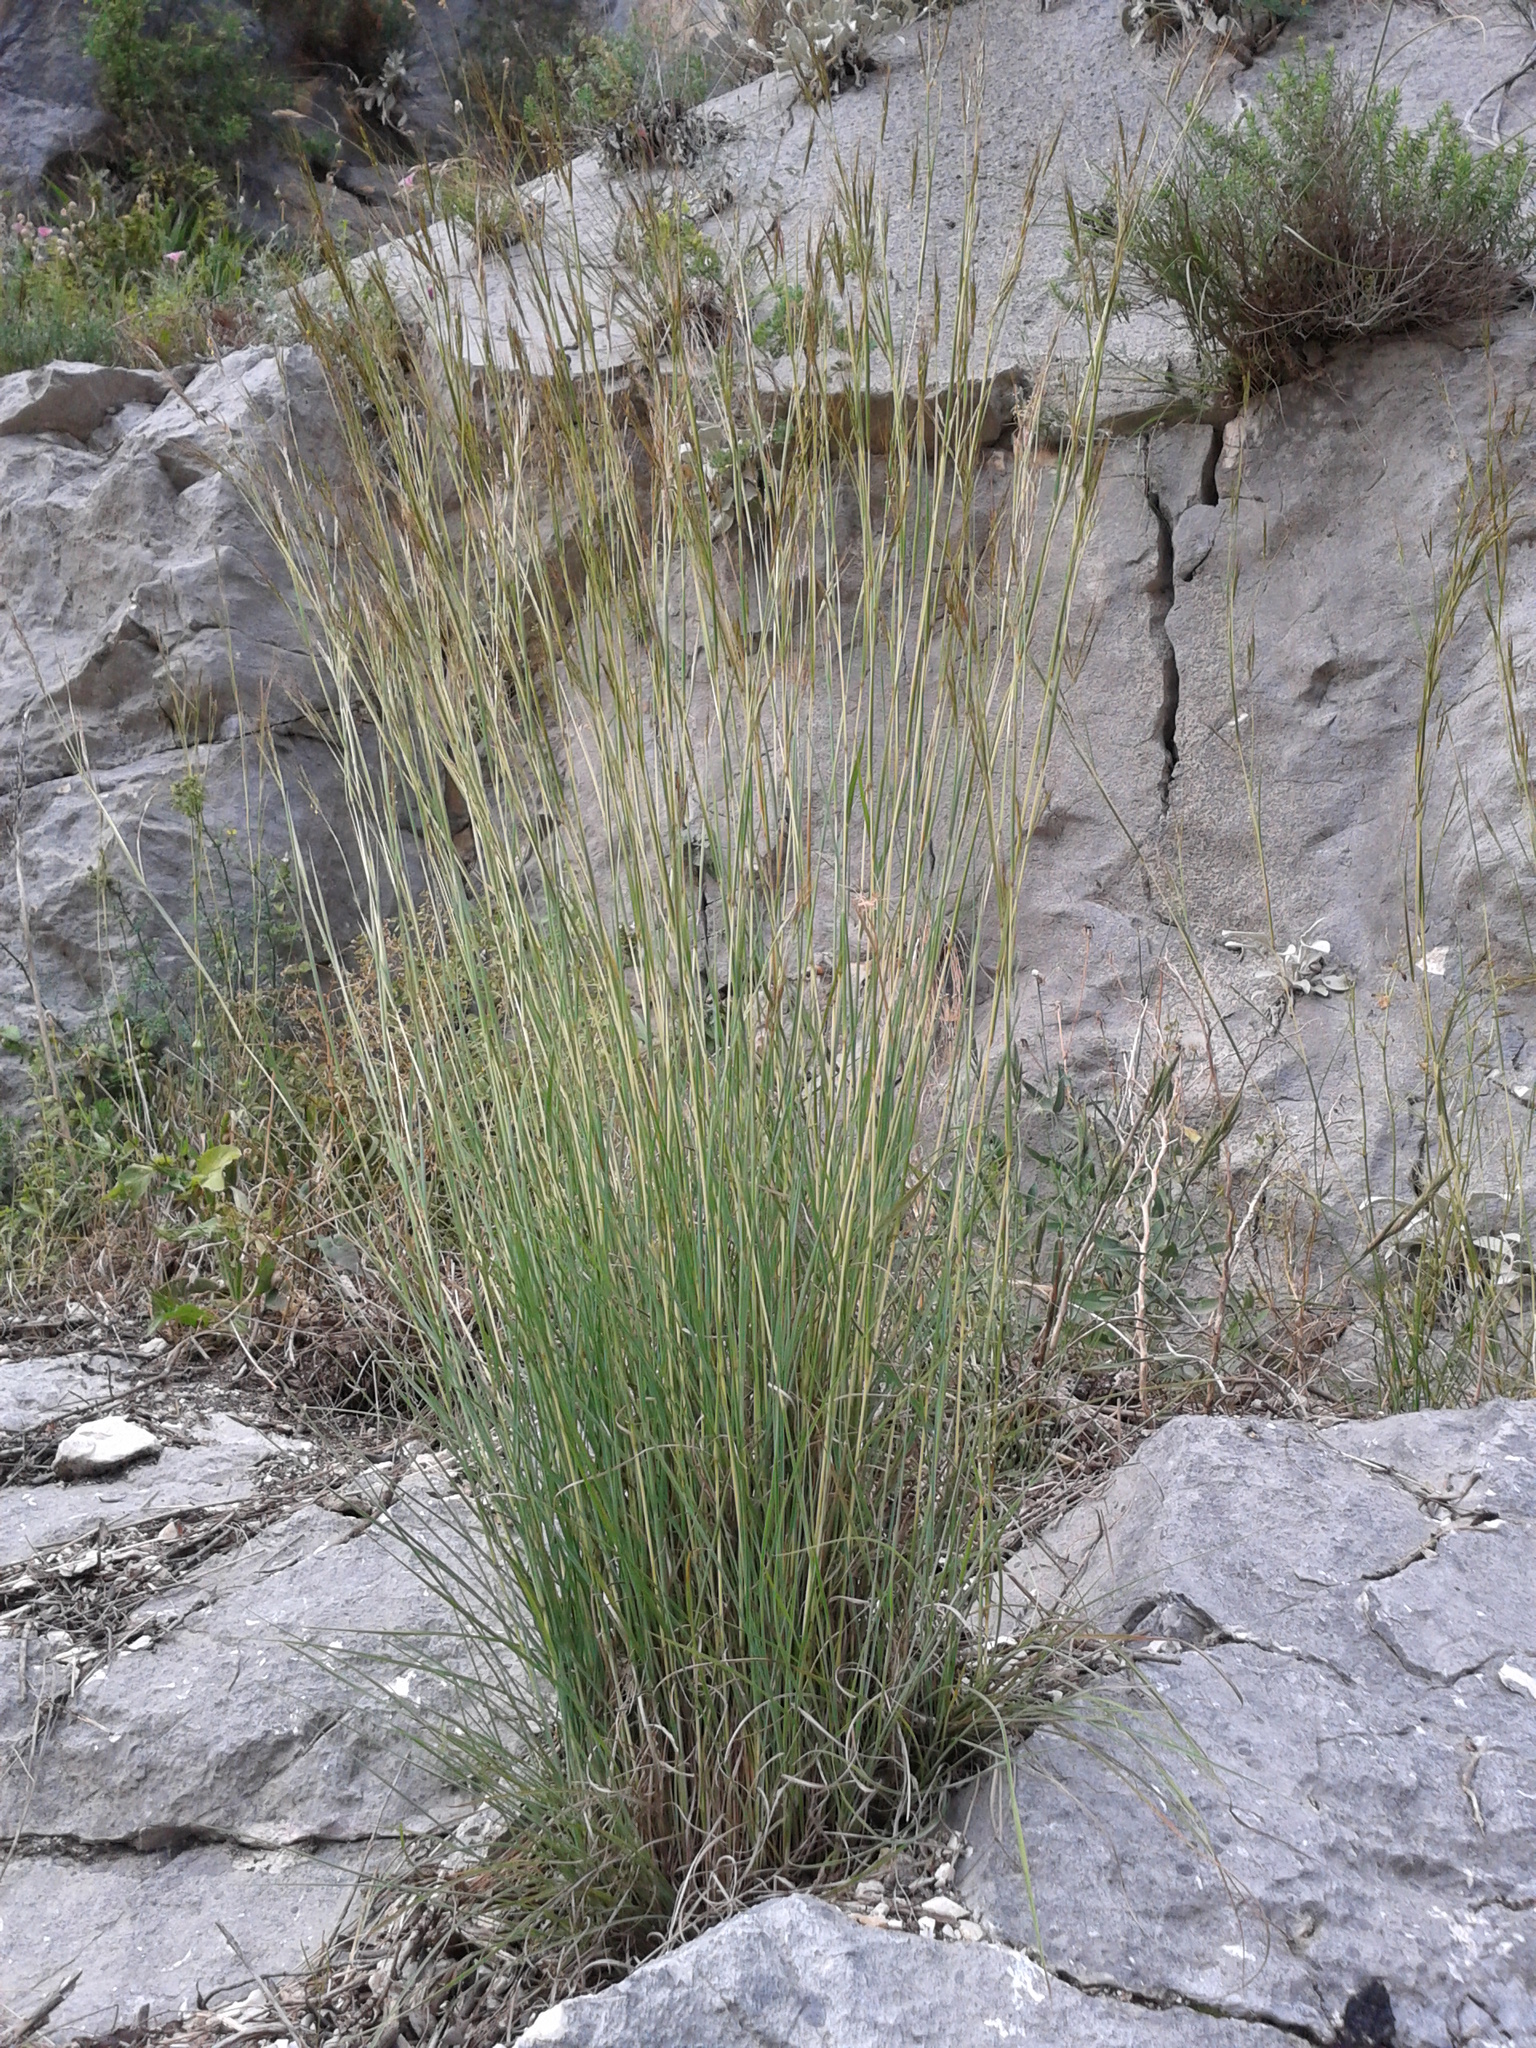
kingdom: Plantae
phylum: Tracheophyta
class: Liliopsida
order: Poales
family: Poaceae
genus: Hyparrhenia
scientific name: Hyparrhenia hirta
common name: Thatching grass
